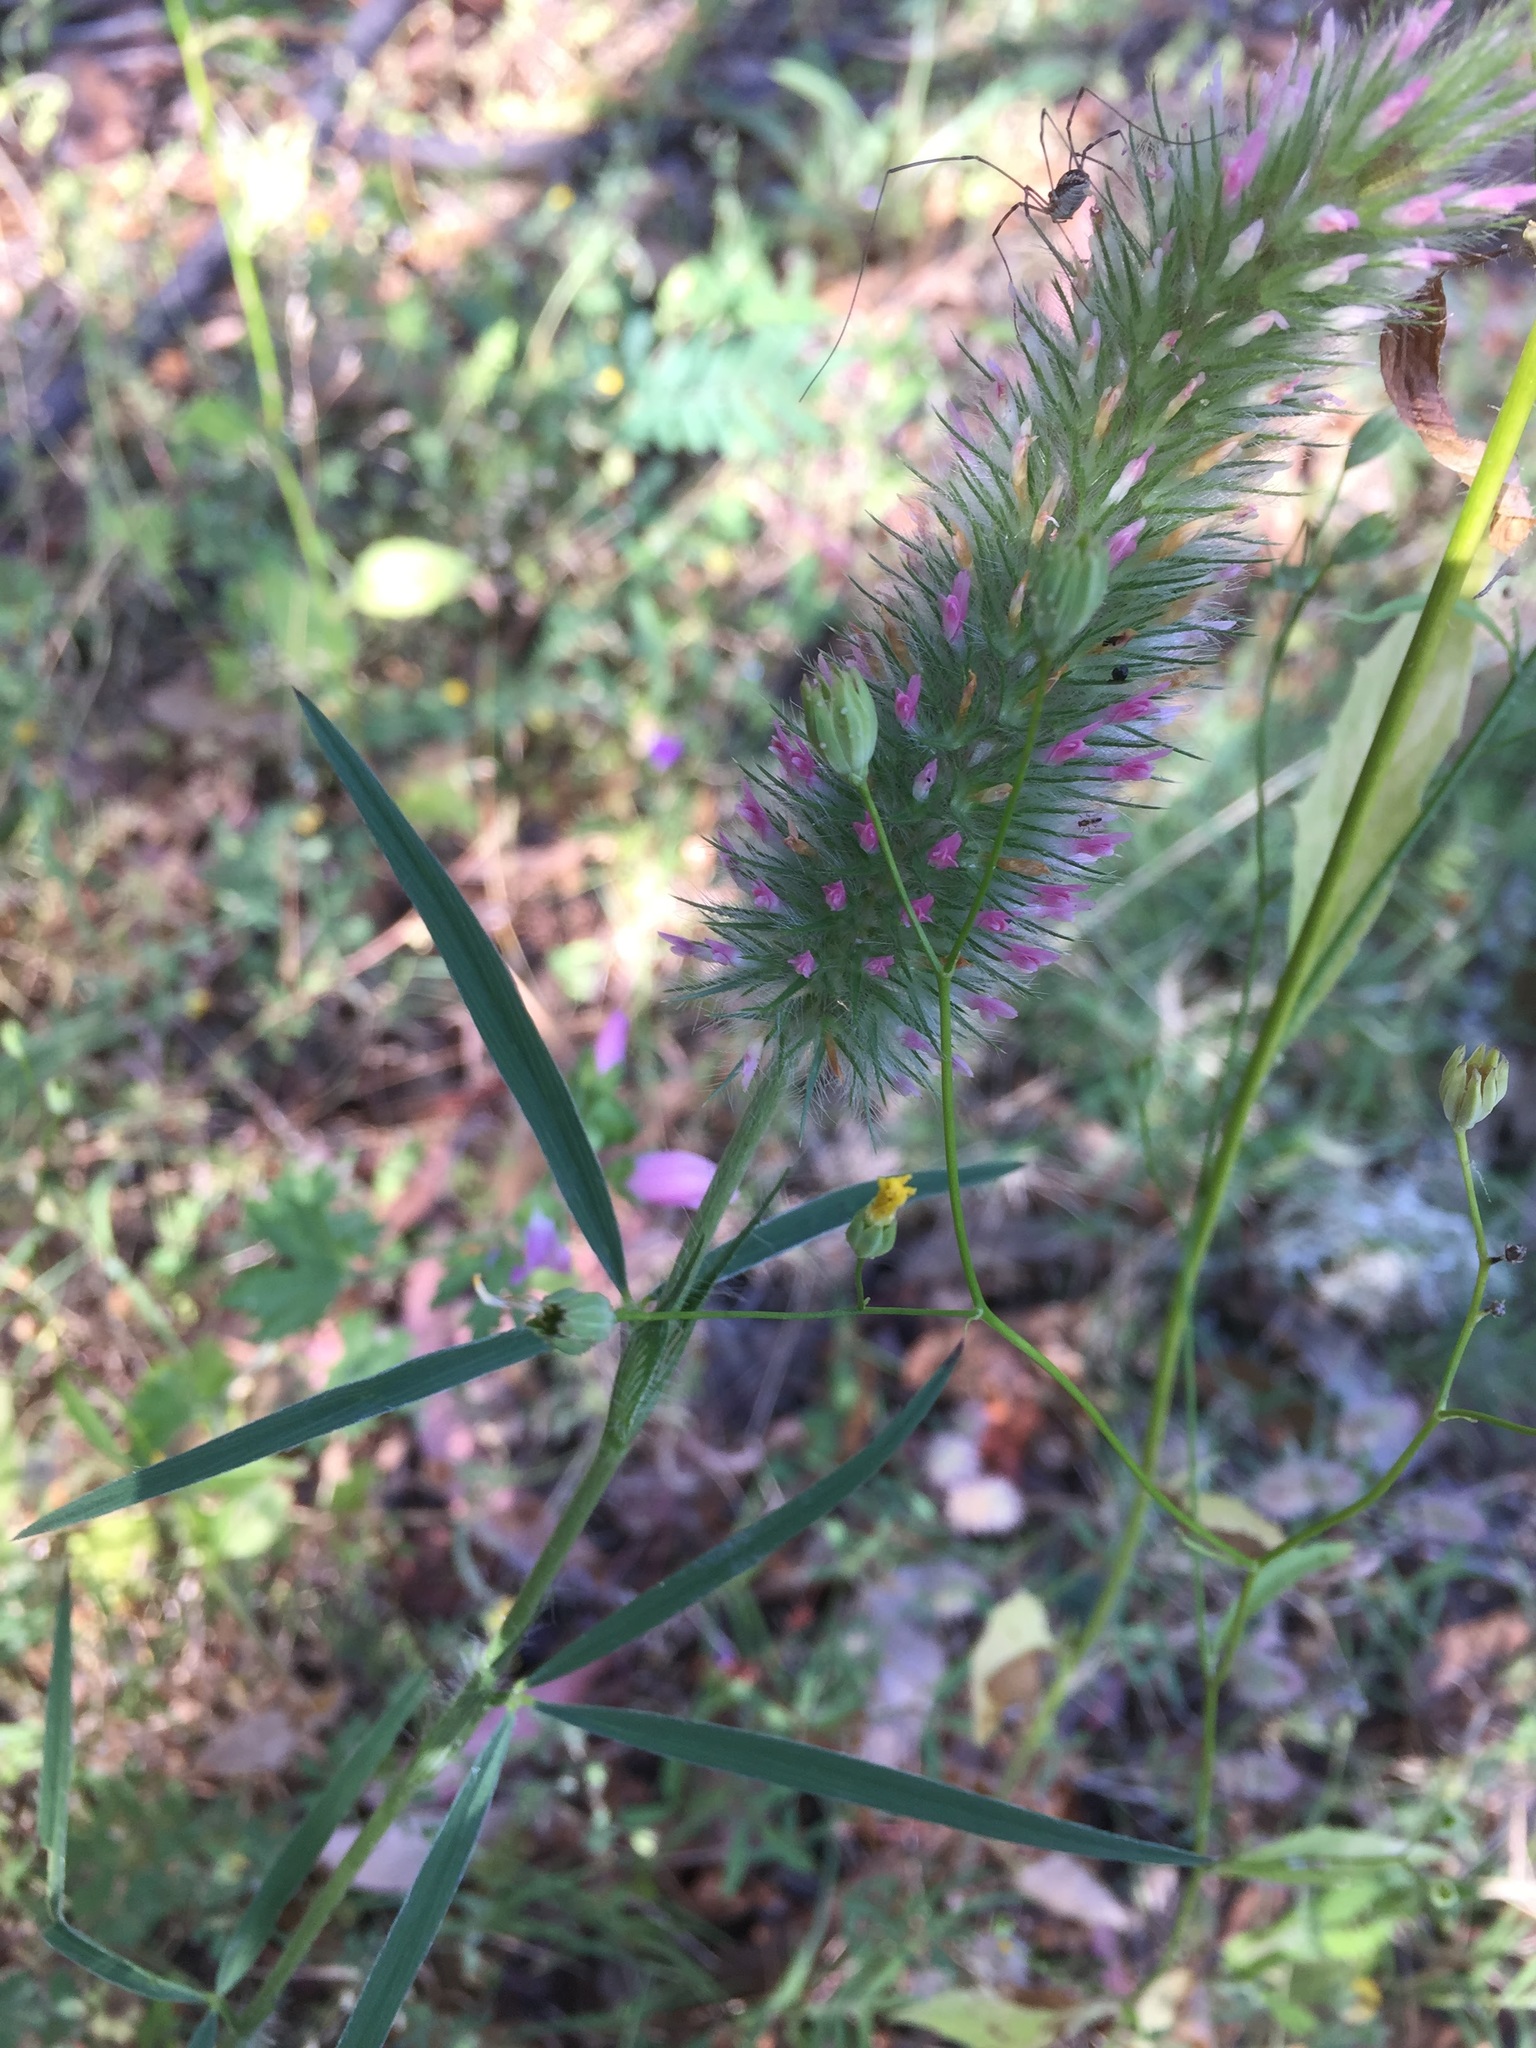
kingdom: Plantae
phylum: Tracheophyta
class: Magnoliopsida
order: Fabales
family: Fabaceae
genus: Trifolium
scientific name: Trifolium angustifolium
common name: Narrow clover
